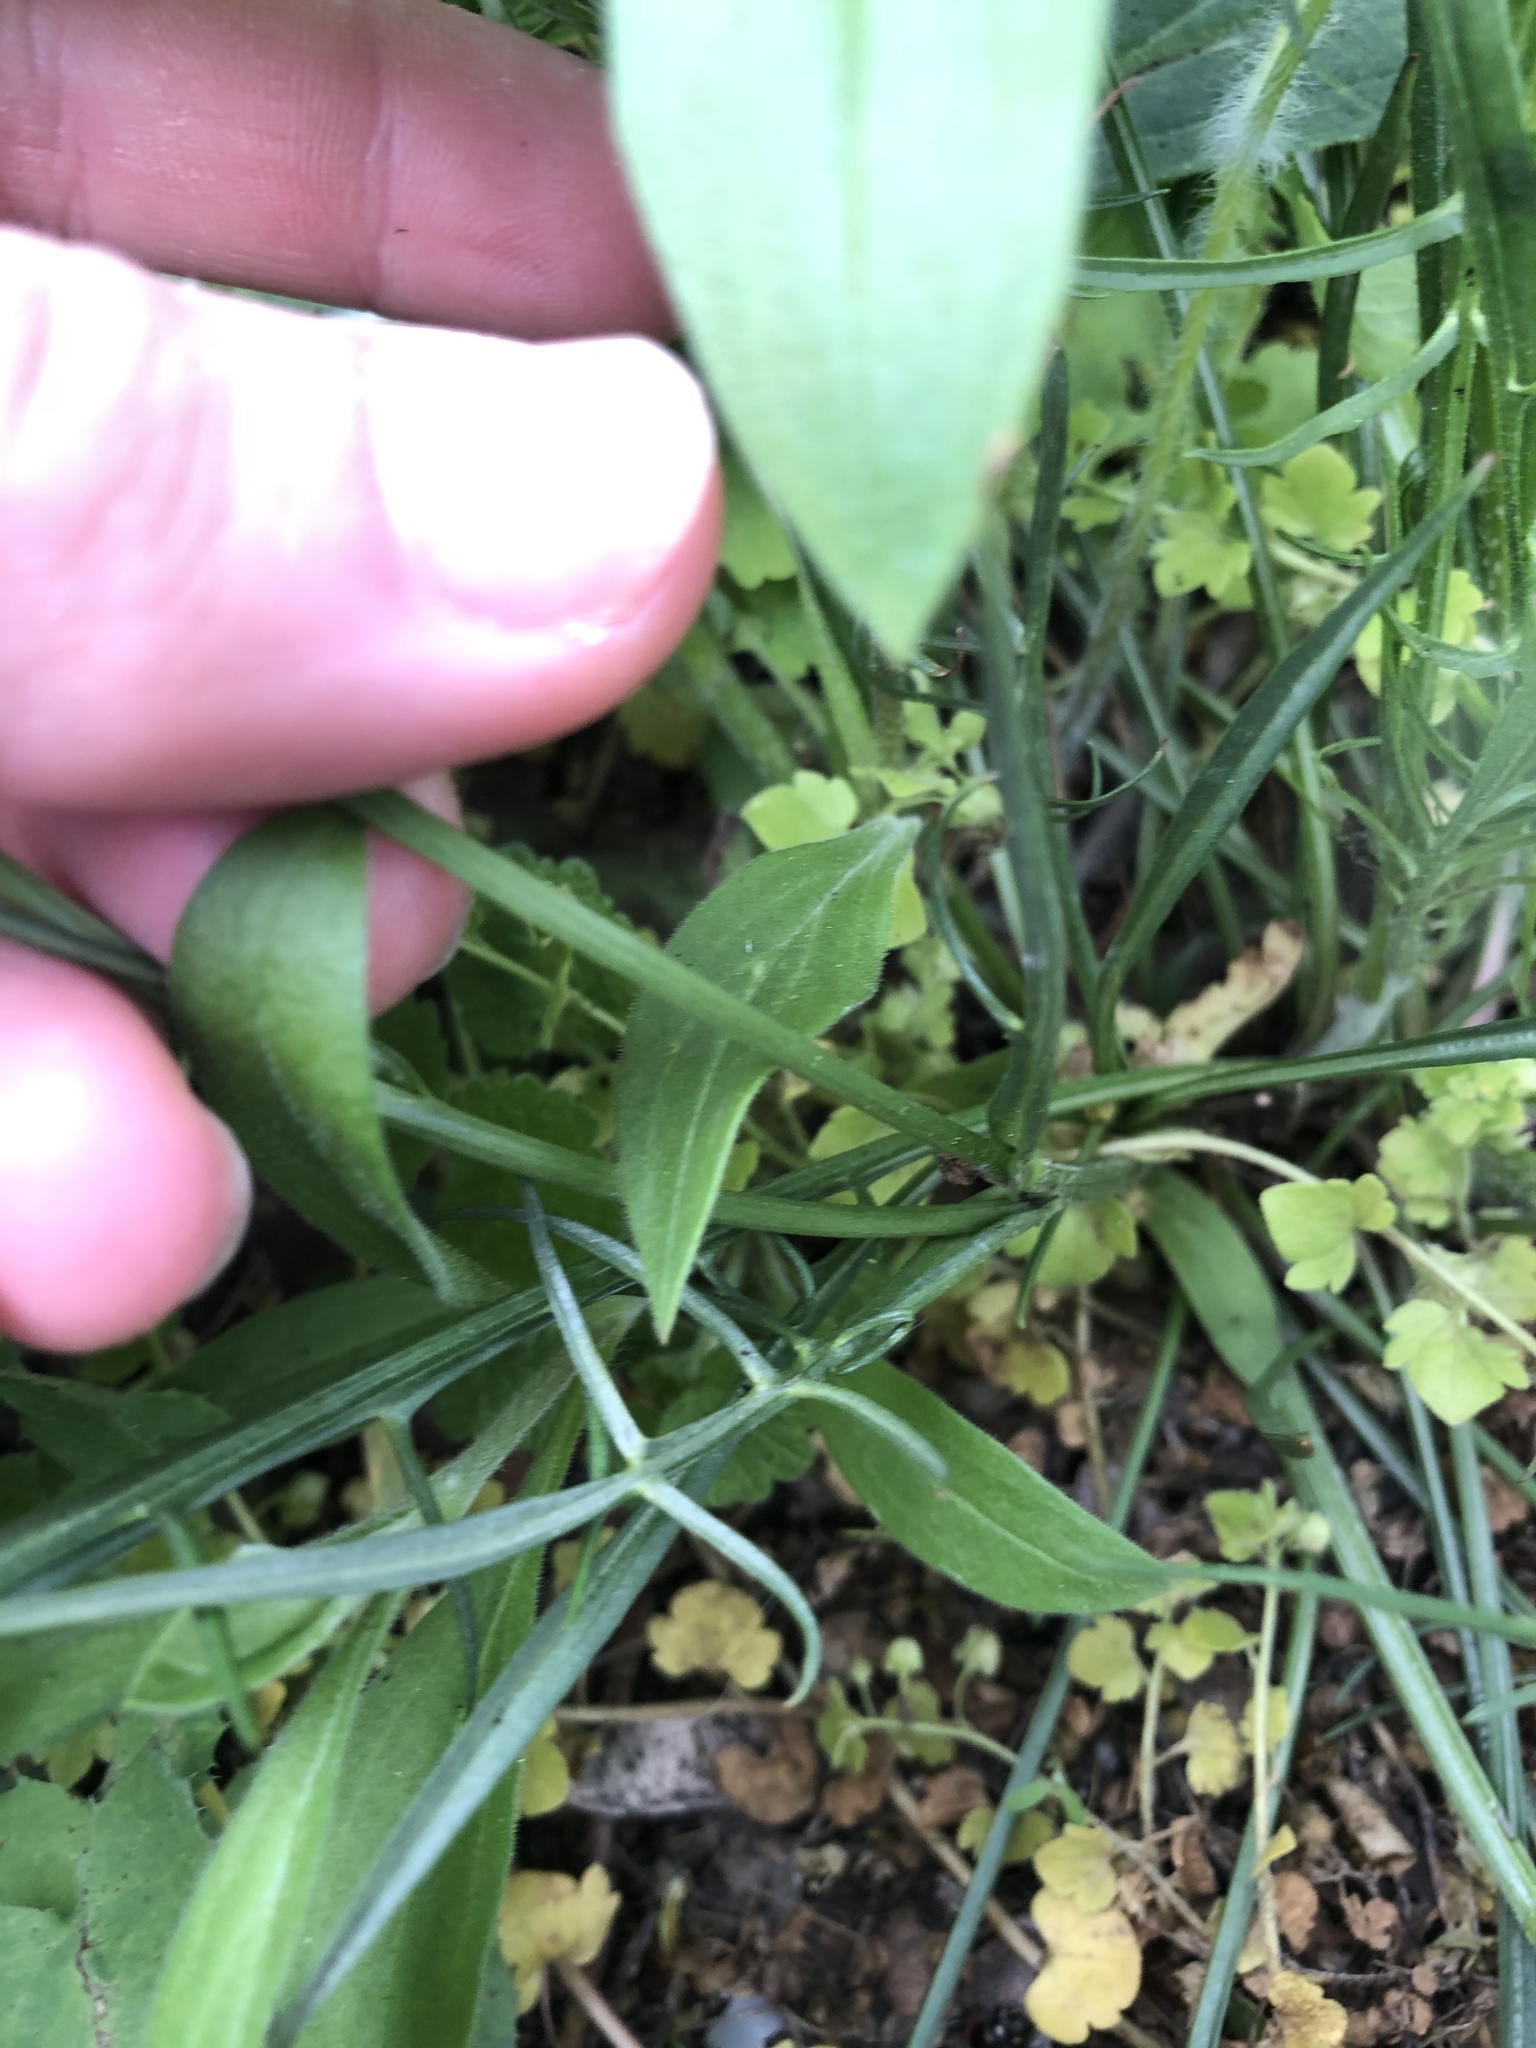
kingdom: Plantae
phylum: Tracheophyta
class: Magnoliopsida
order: Asterales
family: Asteraceae
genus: Scorzonera
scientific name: Scorzonera cana
